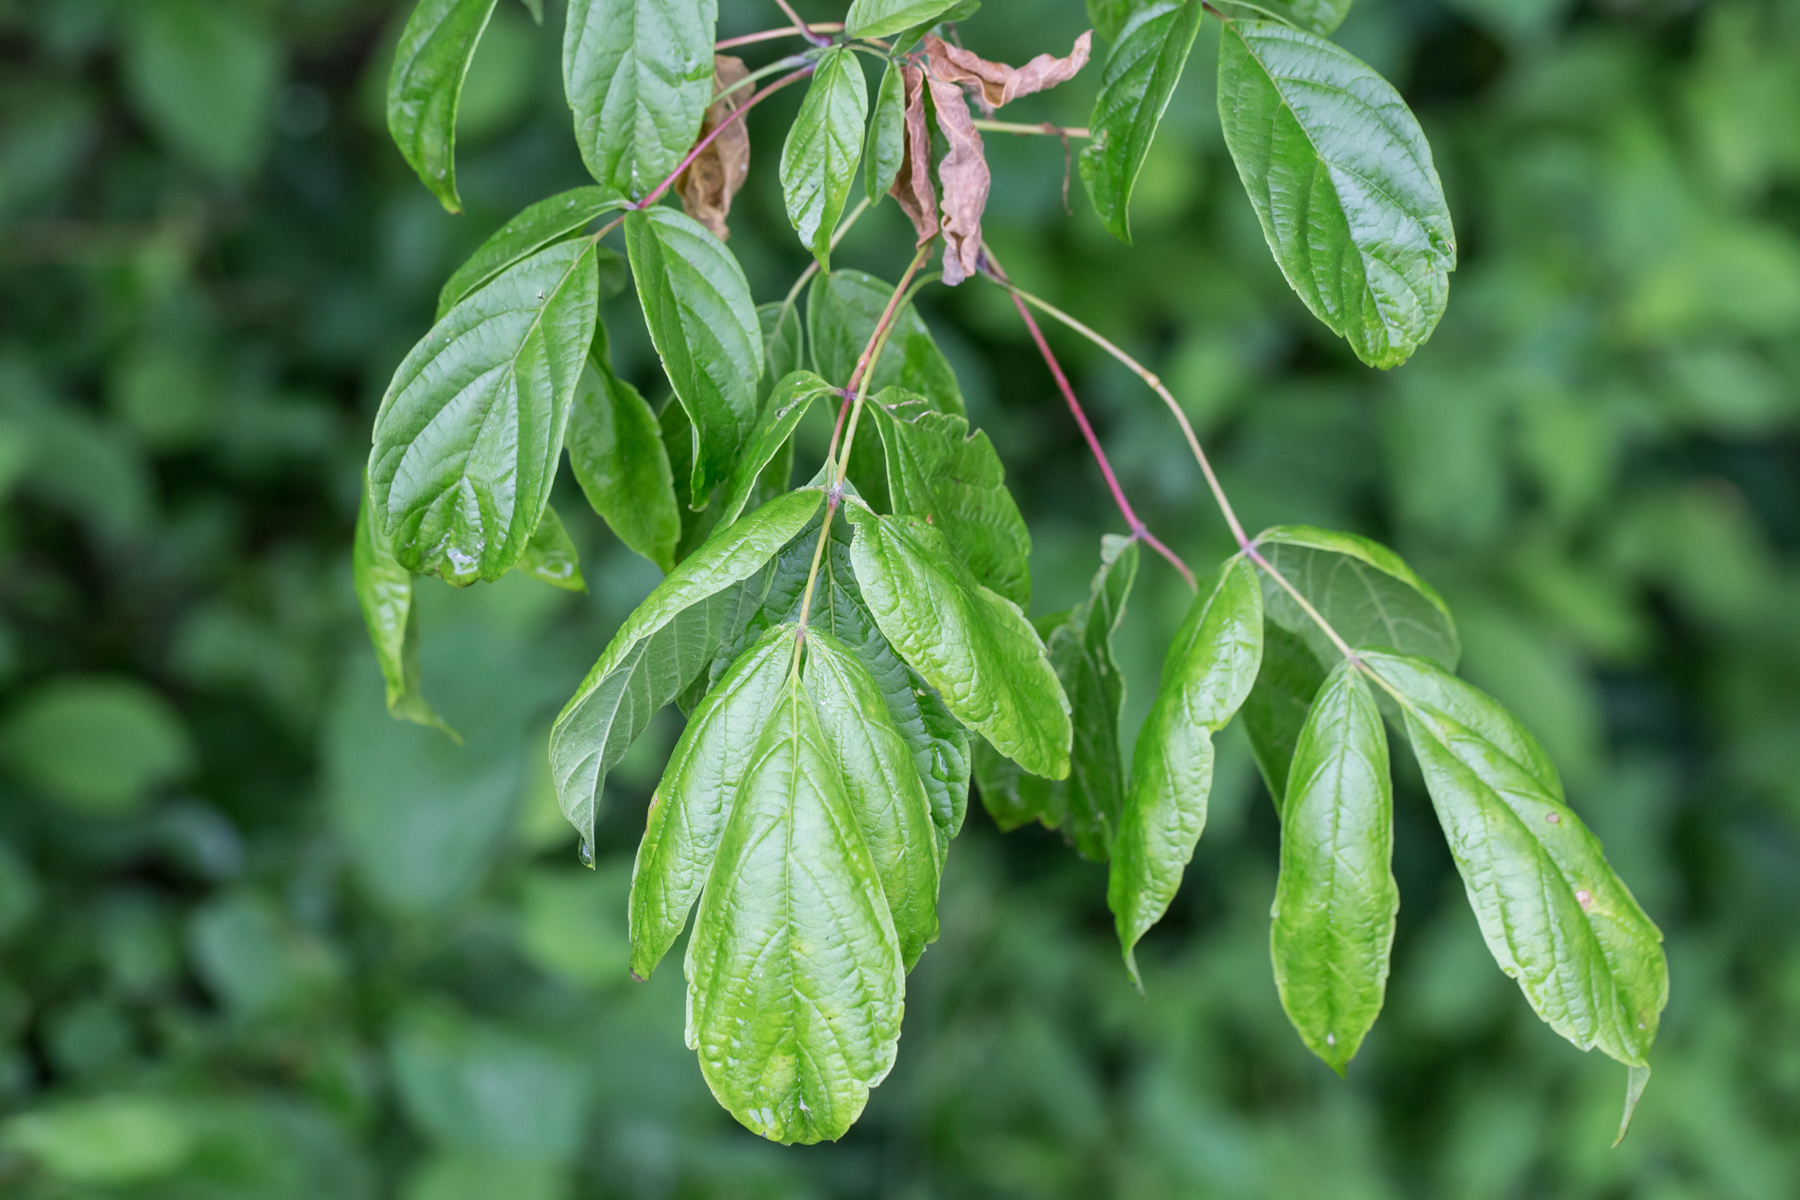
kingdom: Plantae
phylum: Tracheophyta
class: Magnoliopsida
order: Sapindales
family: Sapindaceae
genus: Acer
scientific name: Acer negundo
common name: Ashleaf maple
